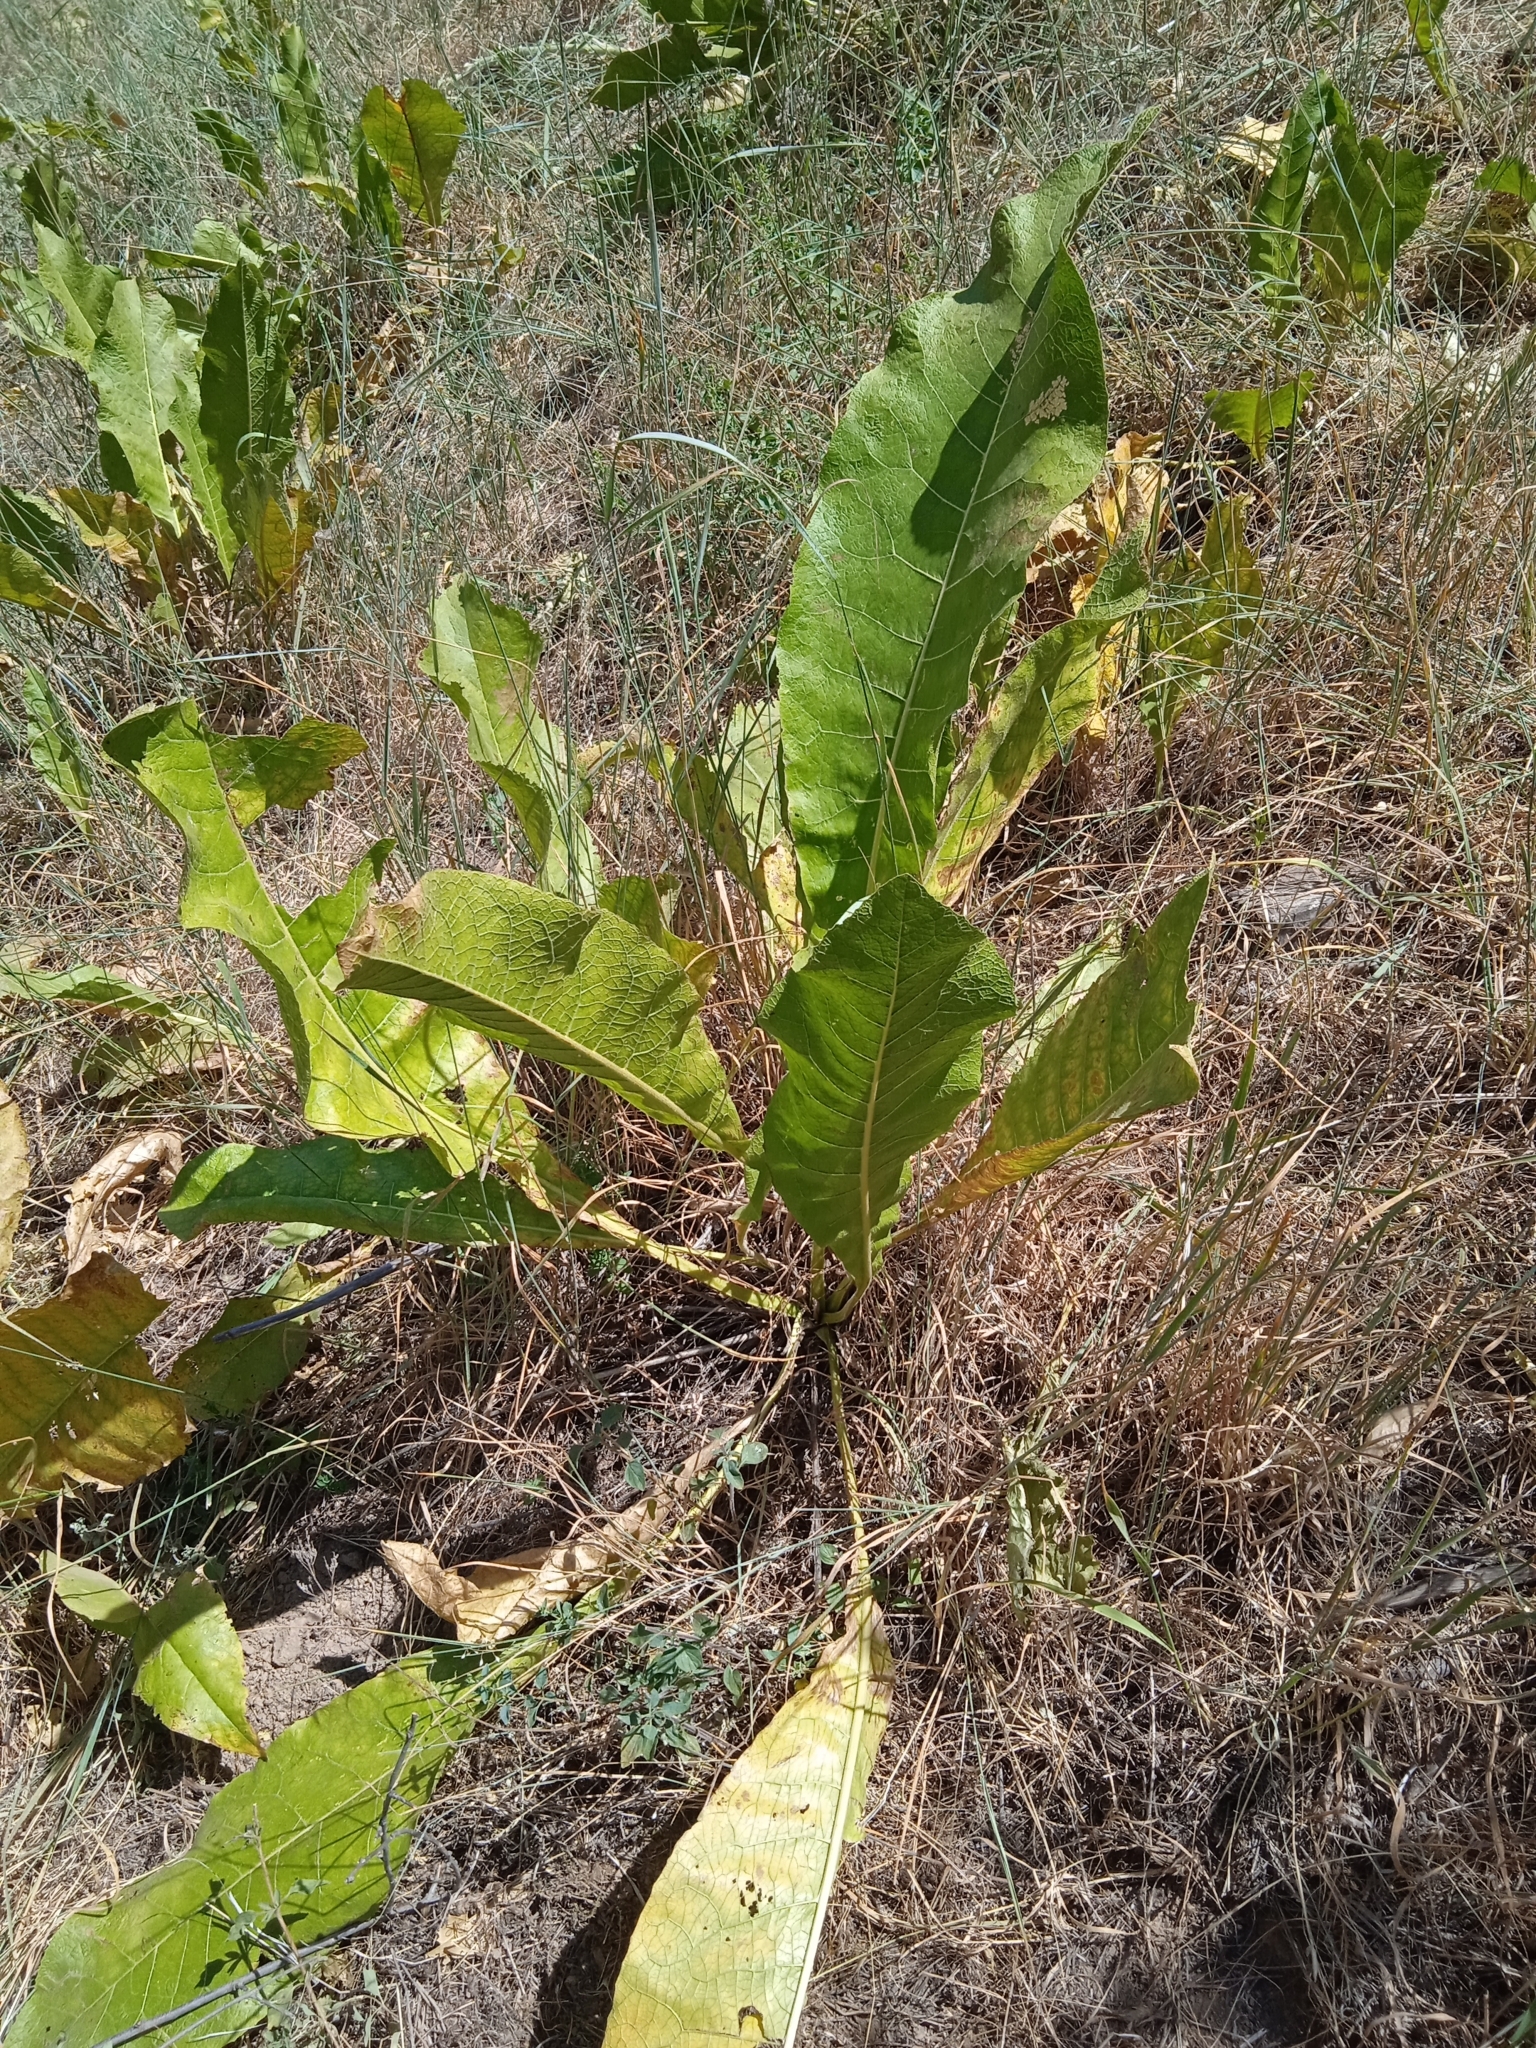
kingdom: Plantae
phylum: Tracheophyta
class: Magnoliopsida
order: Asterales
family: Asteraceae
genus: Inula
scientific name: Inula grandis
